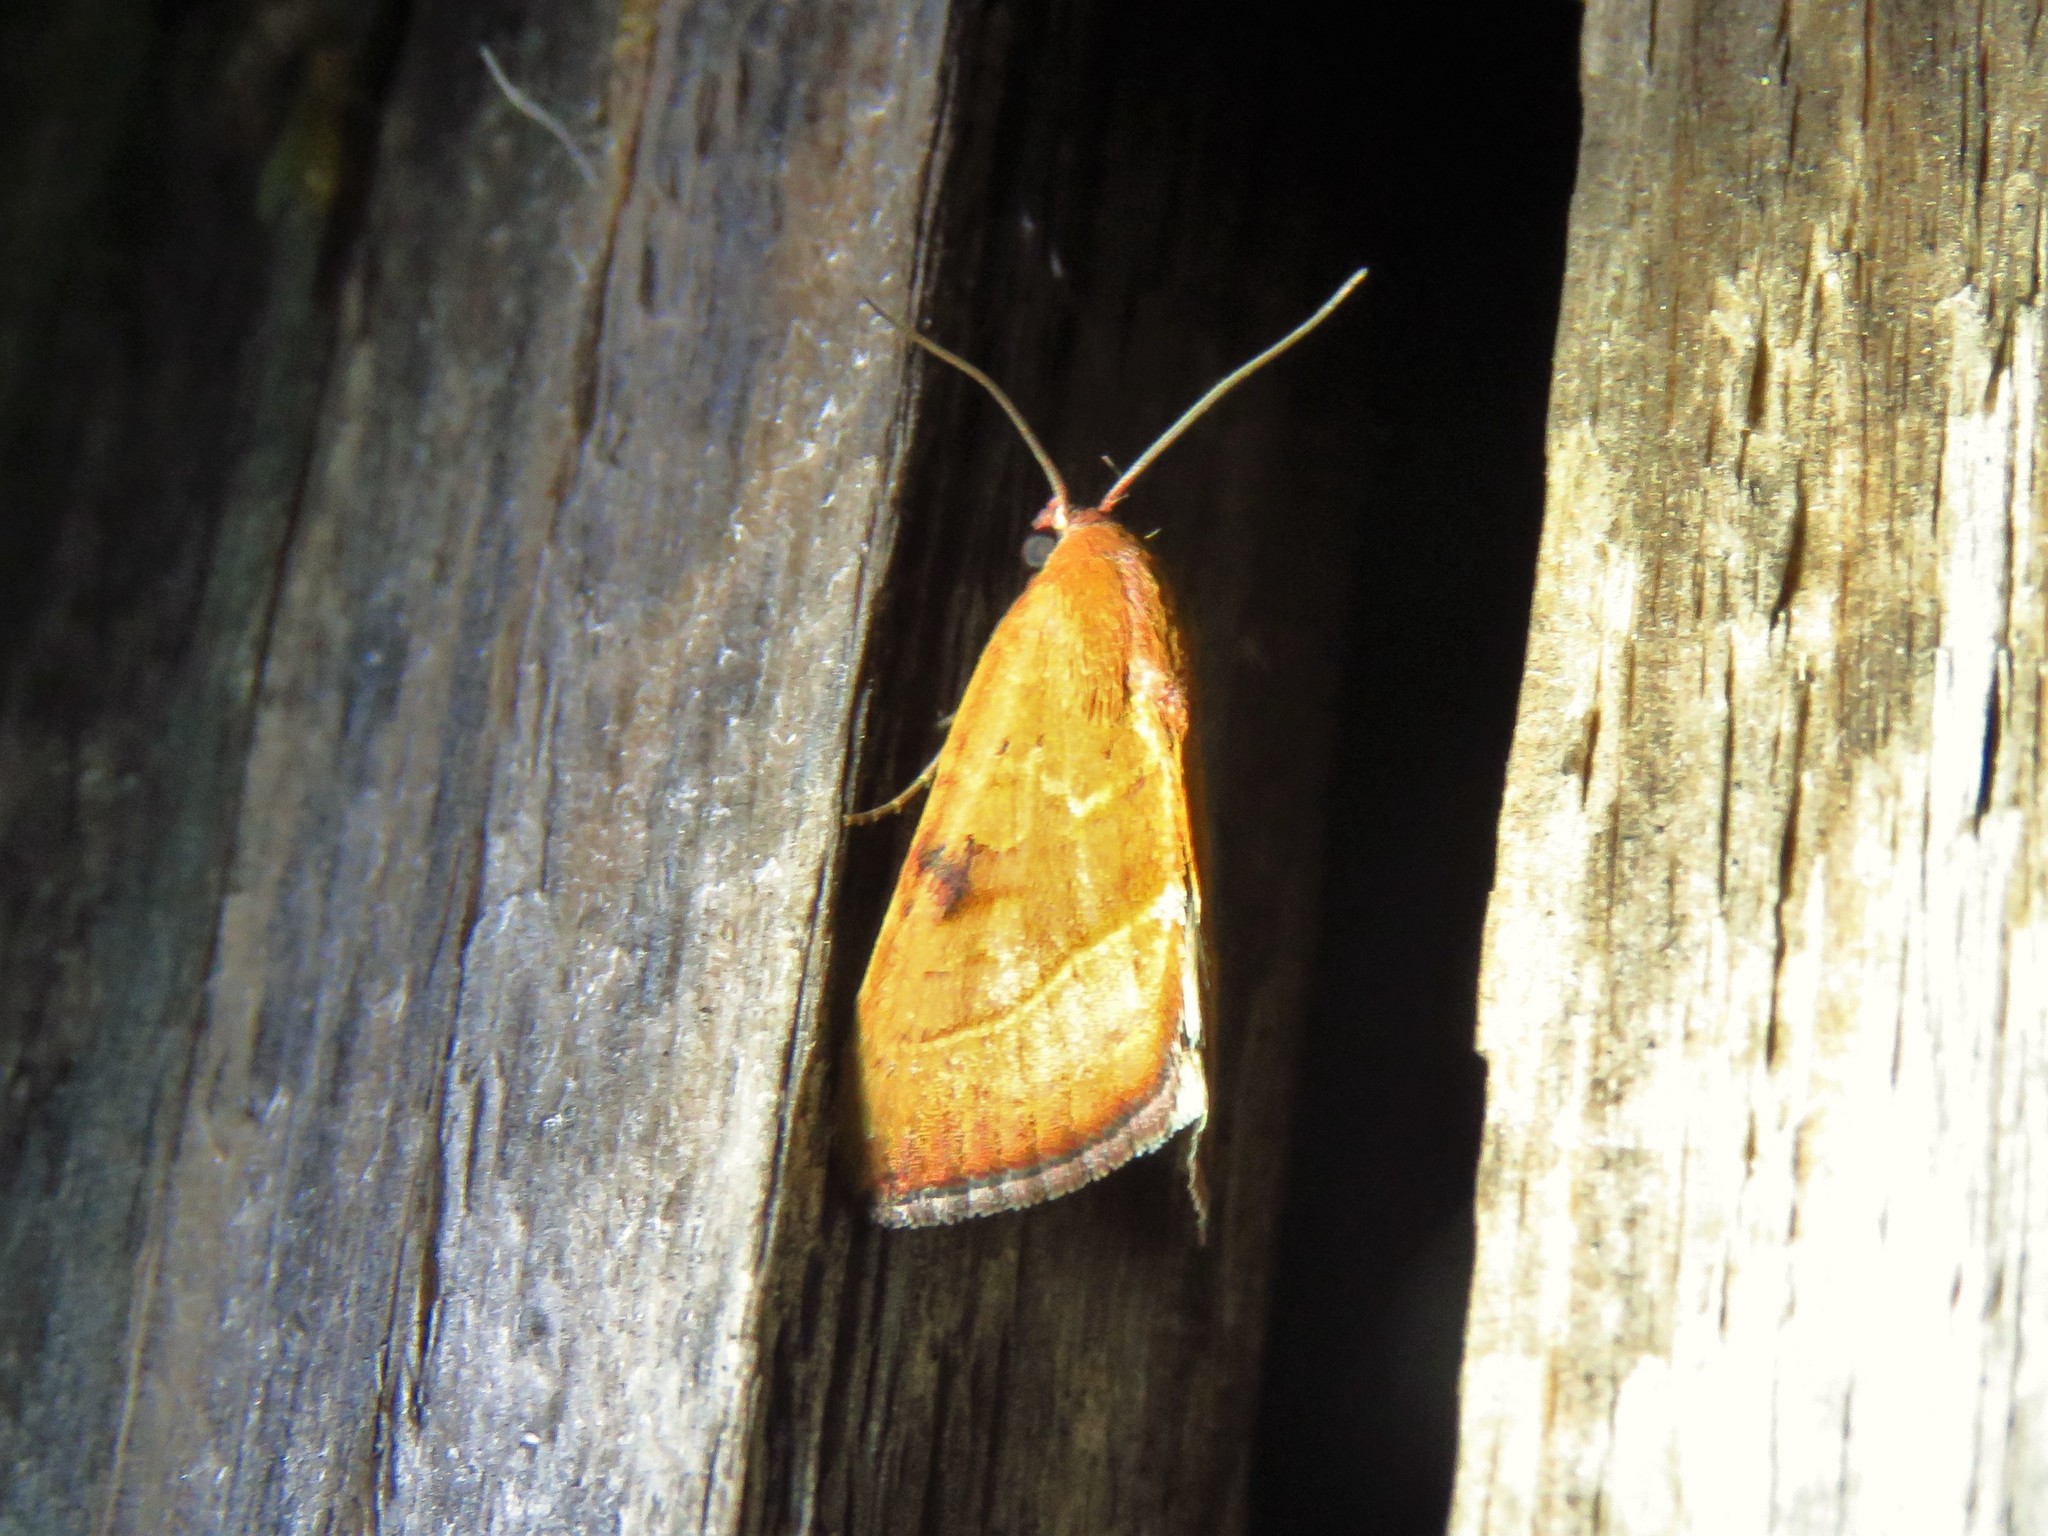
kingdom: Animalia
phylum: Arthropoda
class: Insecta
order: Lepidoptera
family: Noctuidae
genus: Galgula
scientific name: Galgula partita
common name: Wedgeling
